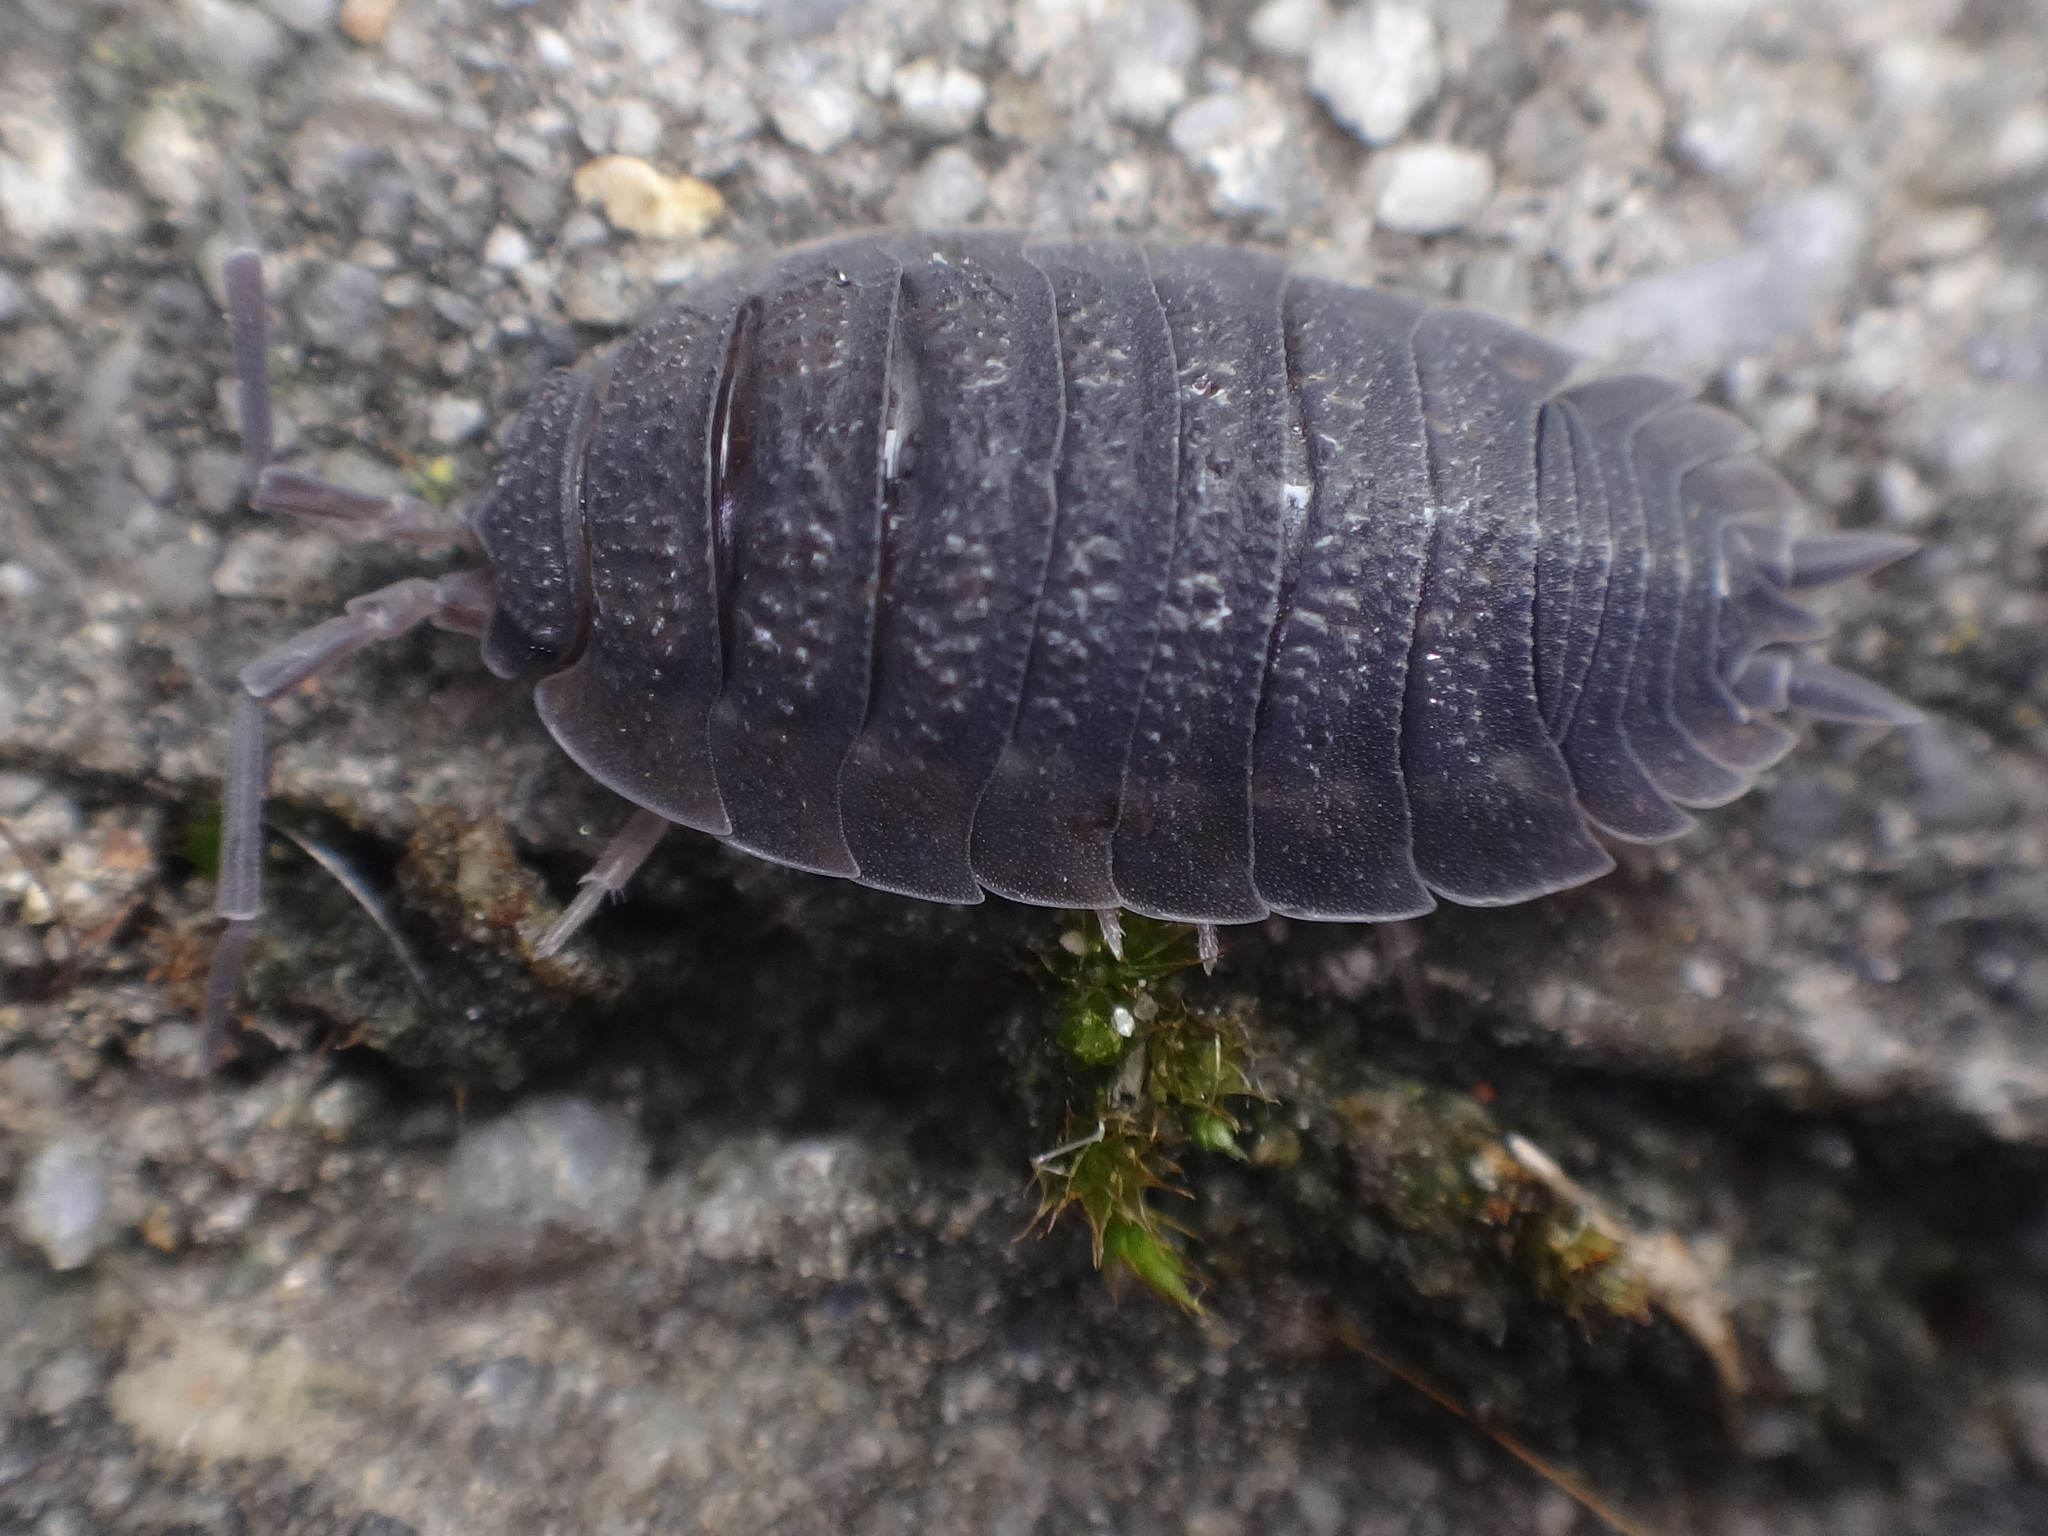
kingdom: Animalia
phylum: Arthropoda
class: Malacostraca
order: Isopoda
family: Porcellionidae
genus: Porcellio
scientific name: Porcellio scaber
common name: Common rough woodlouse
